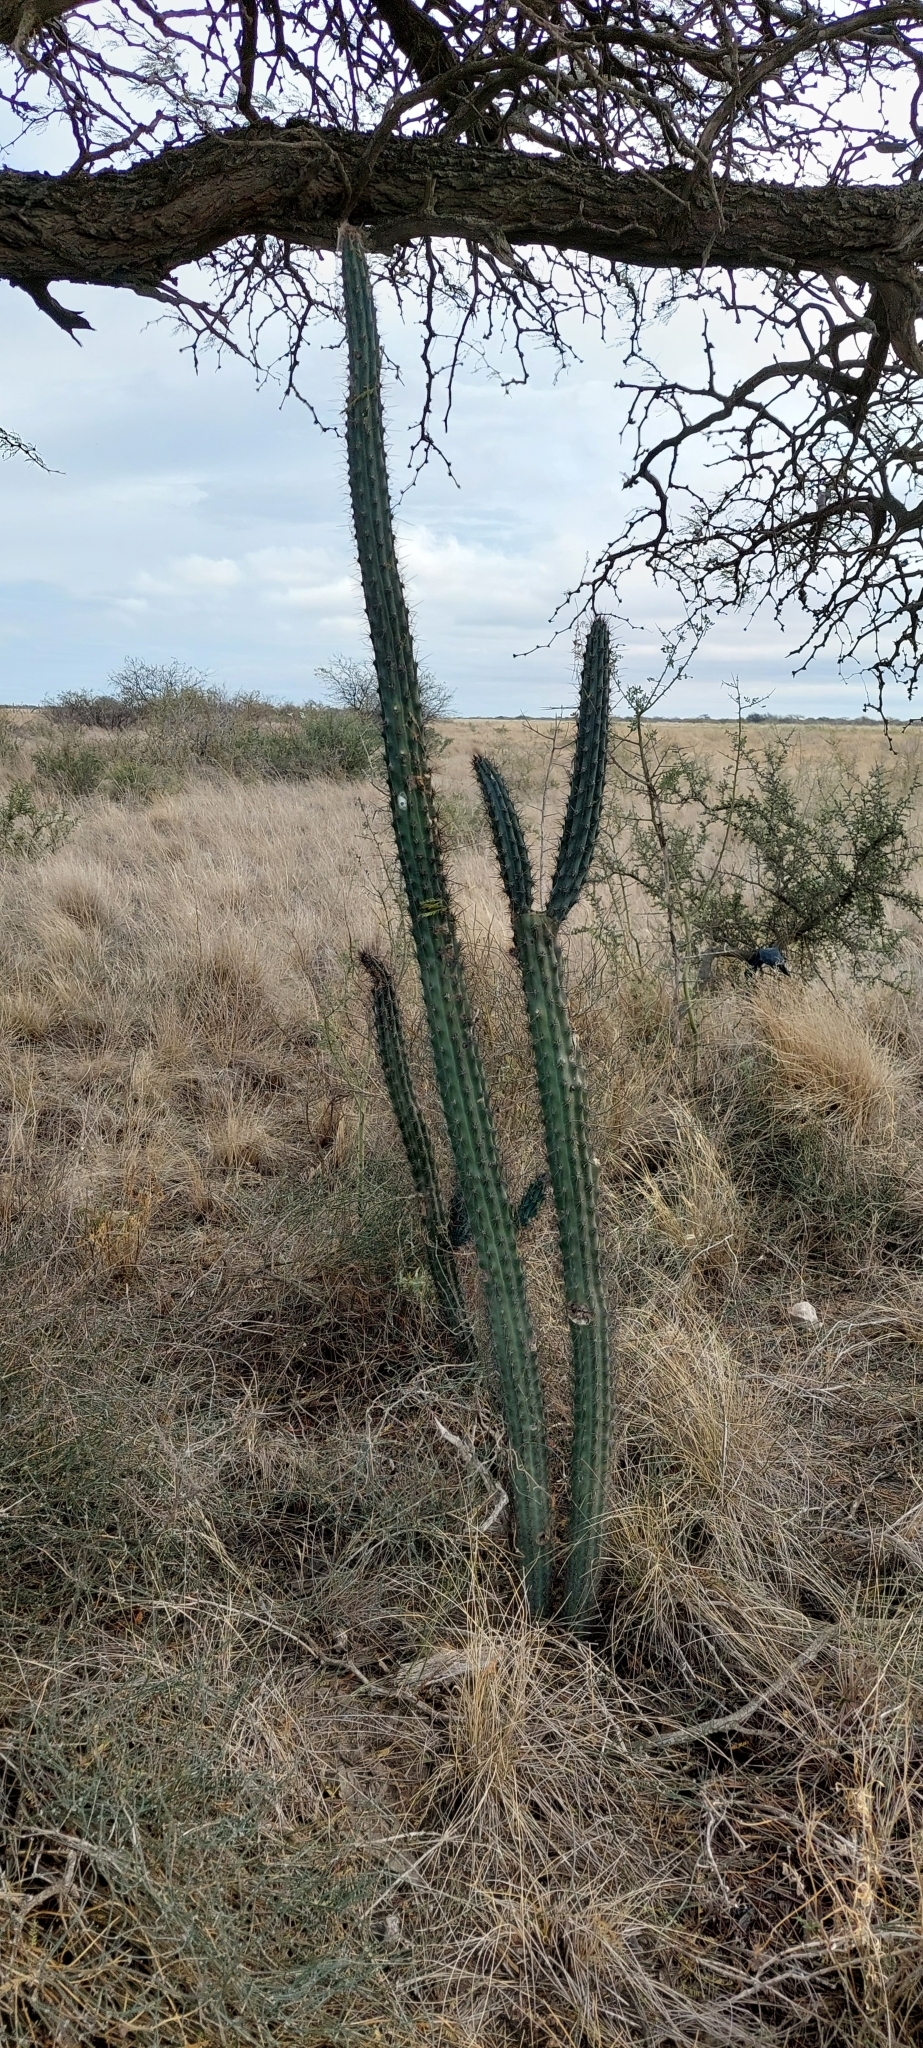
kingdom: Plantae
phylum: Tracheophyta
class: Magnoliopsida
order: Caryophyllales
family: Cactaceae
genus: Cereus
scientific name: Cereus aethiops
